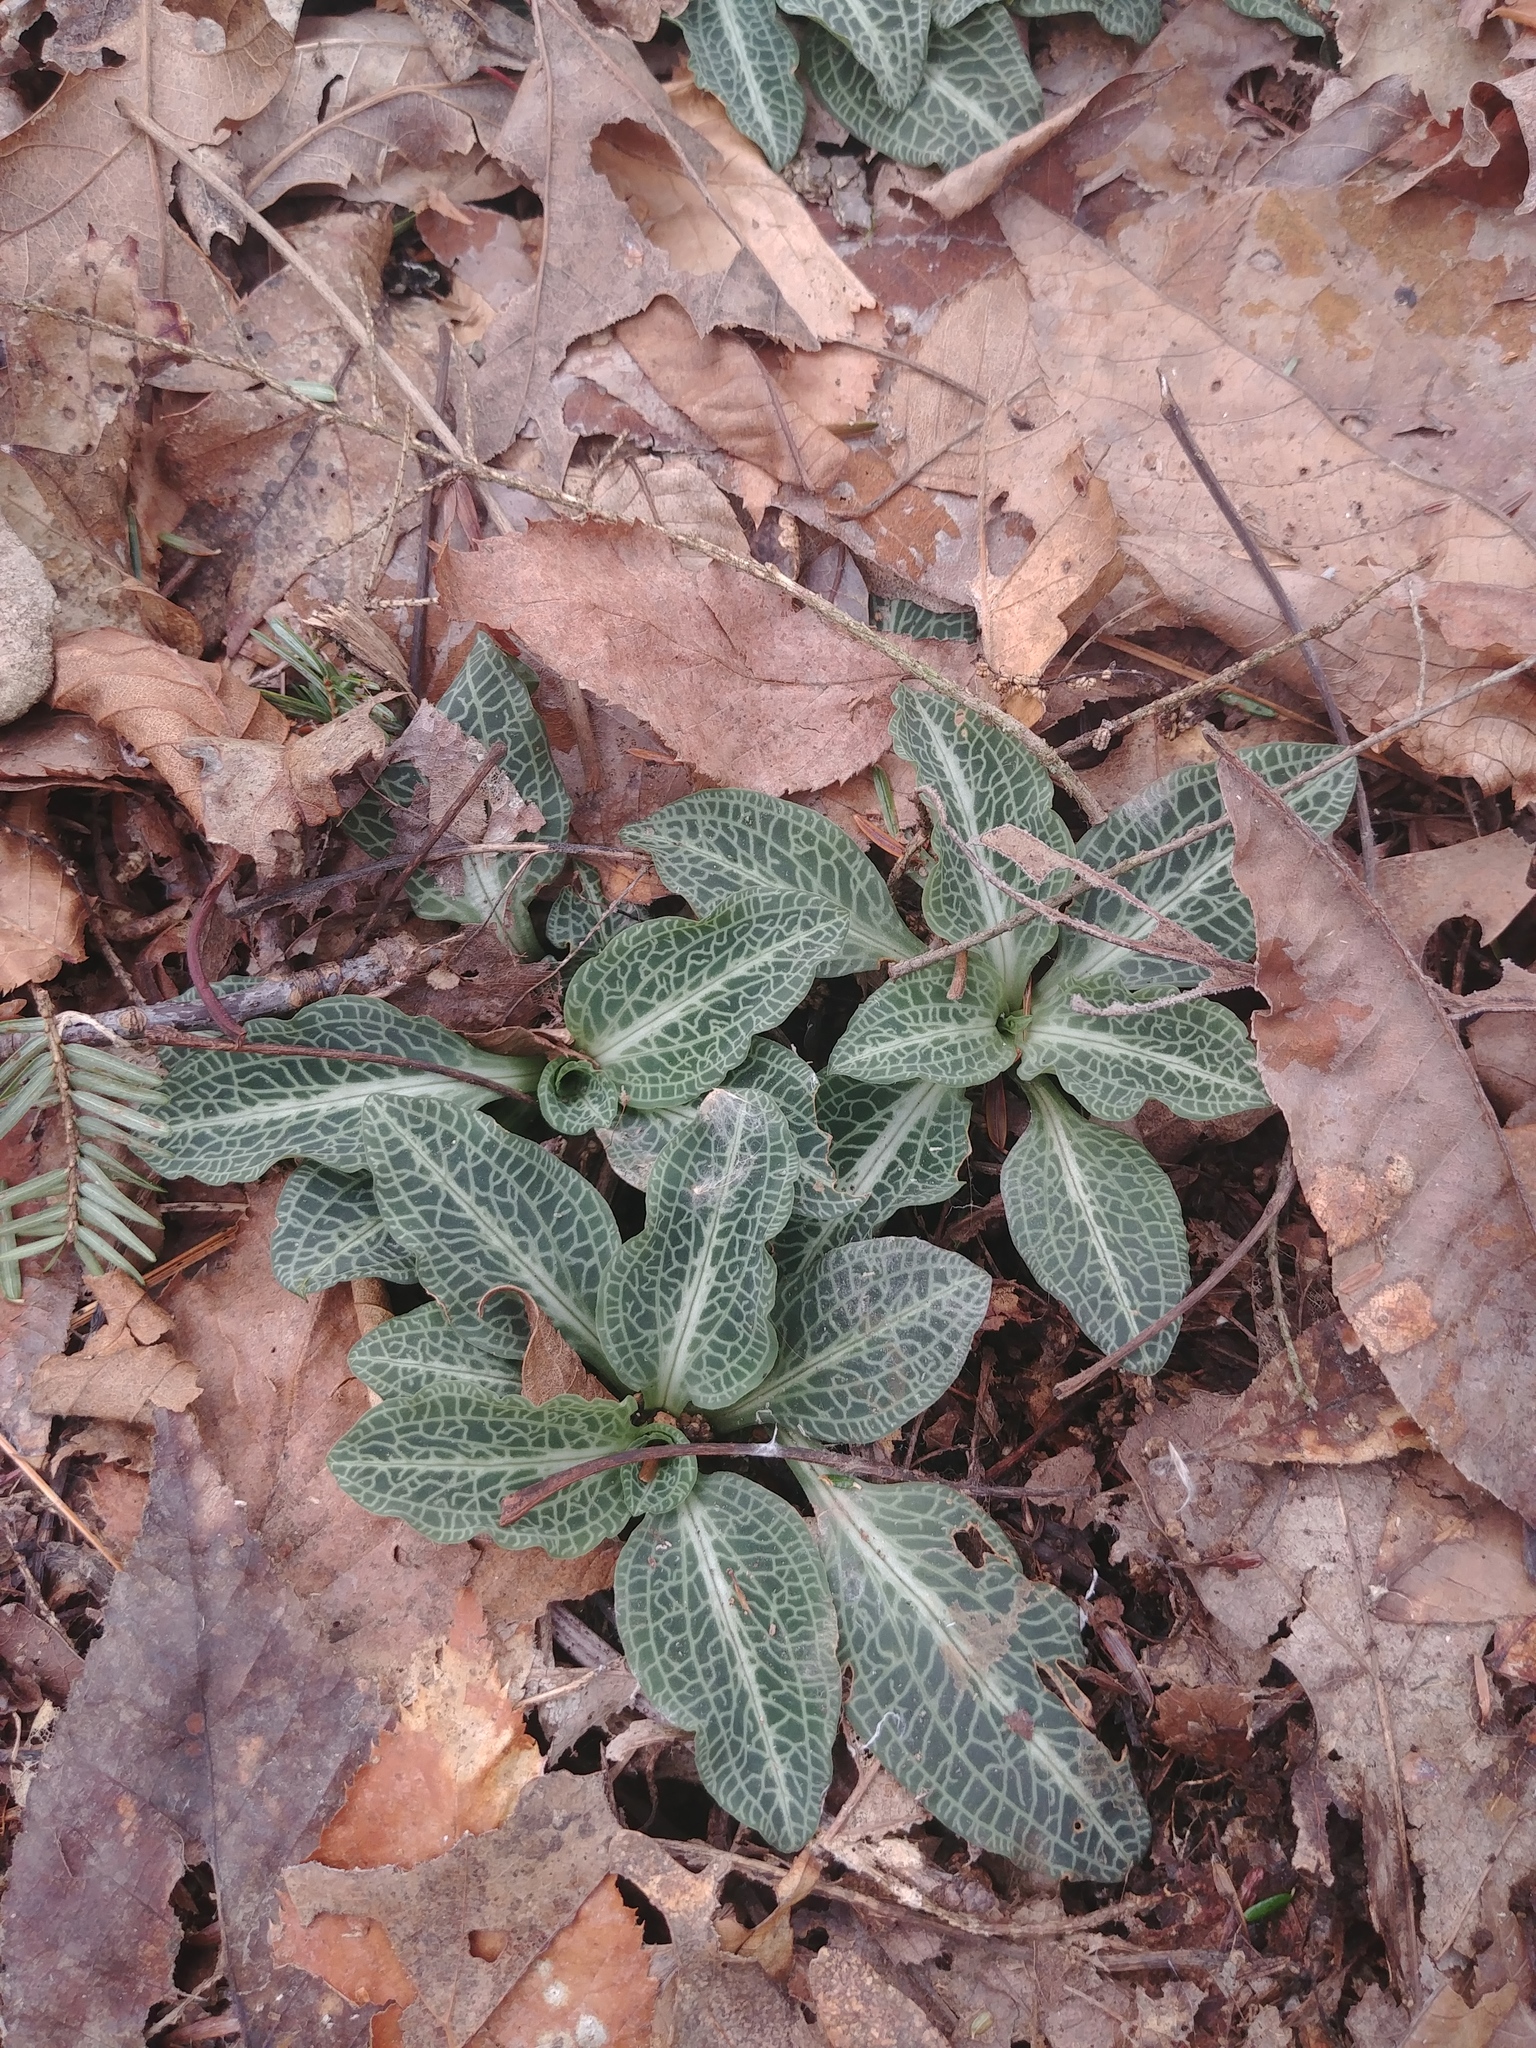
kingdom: Plantae
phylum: Tracheophyta
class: Liliopsida
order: Asparagales
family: Orchidaceae
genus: Goodyera
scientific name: Goodyera pubescens
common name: Downy rattlesnake-plantain
